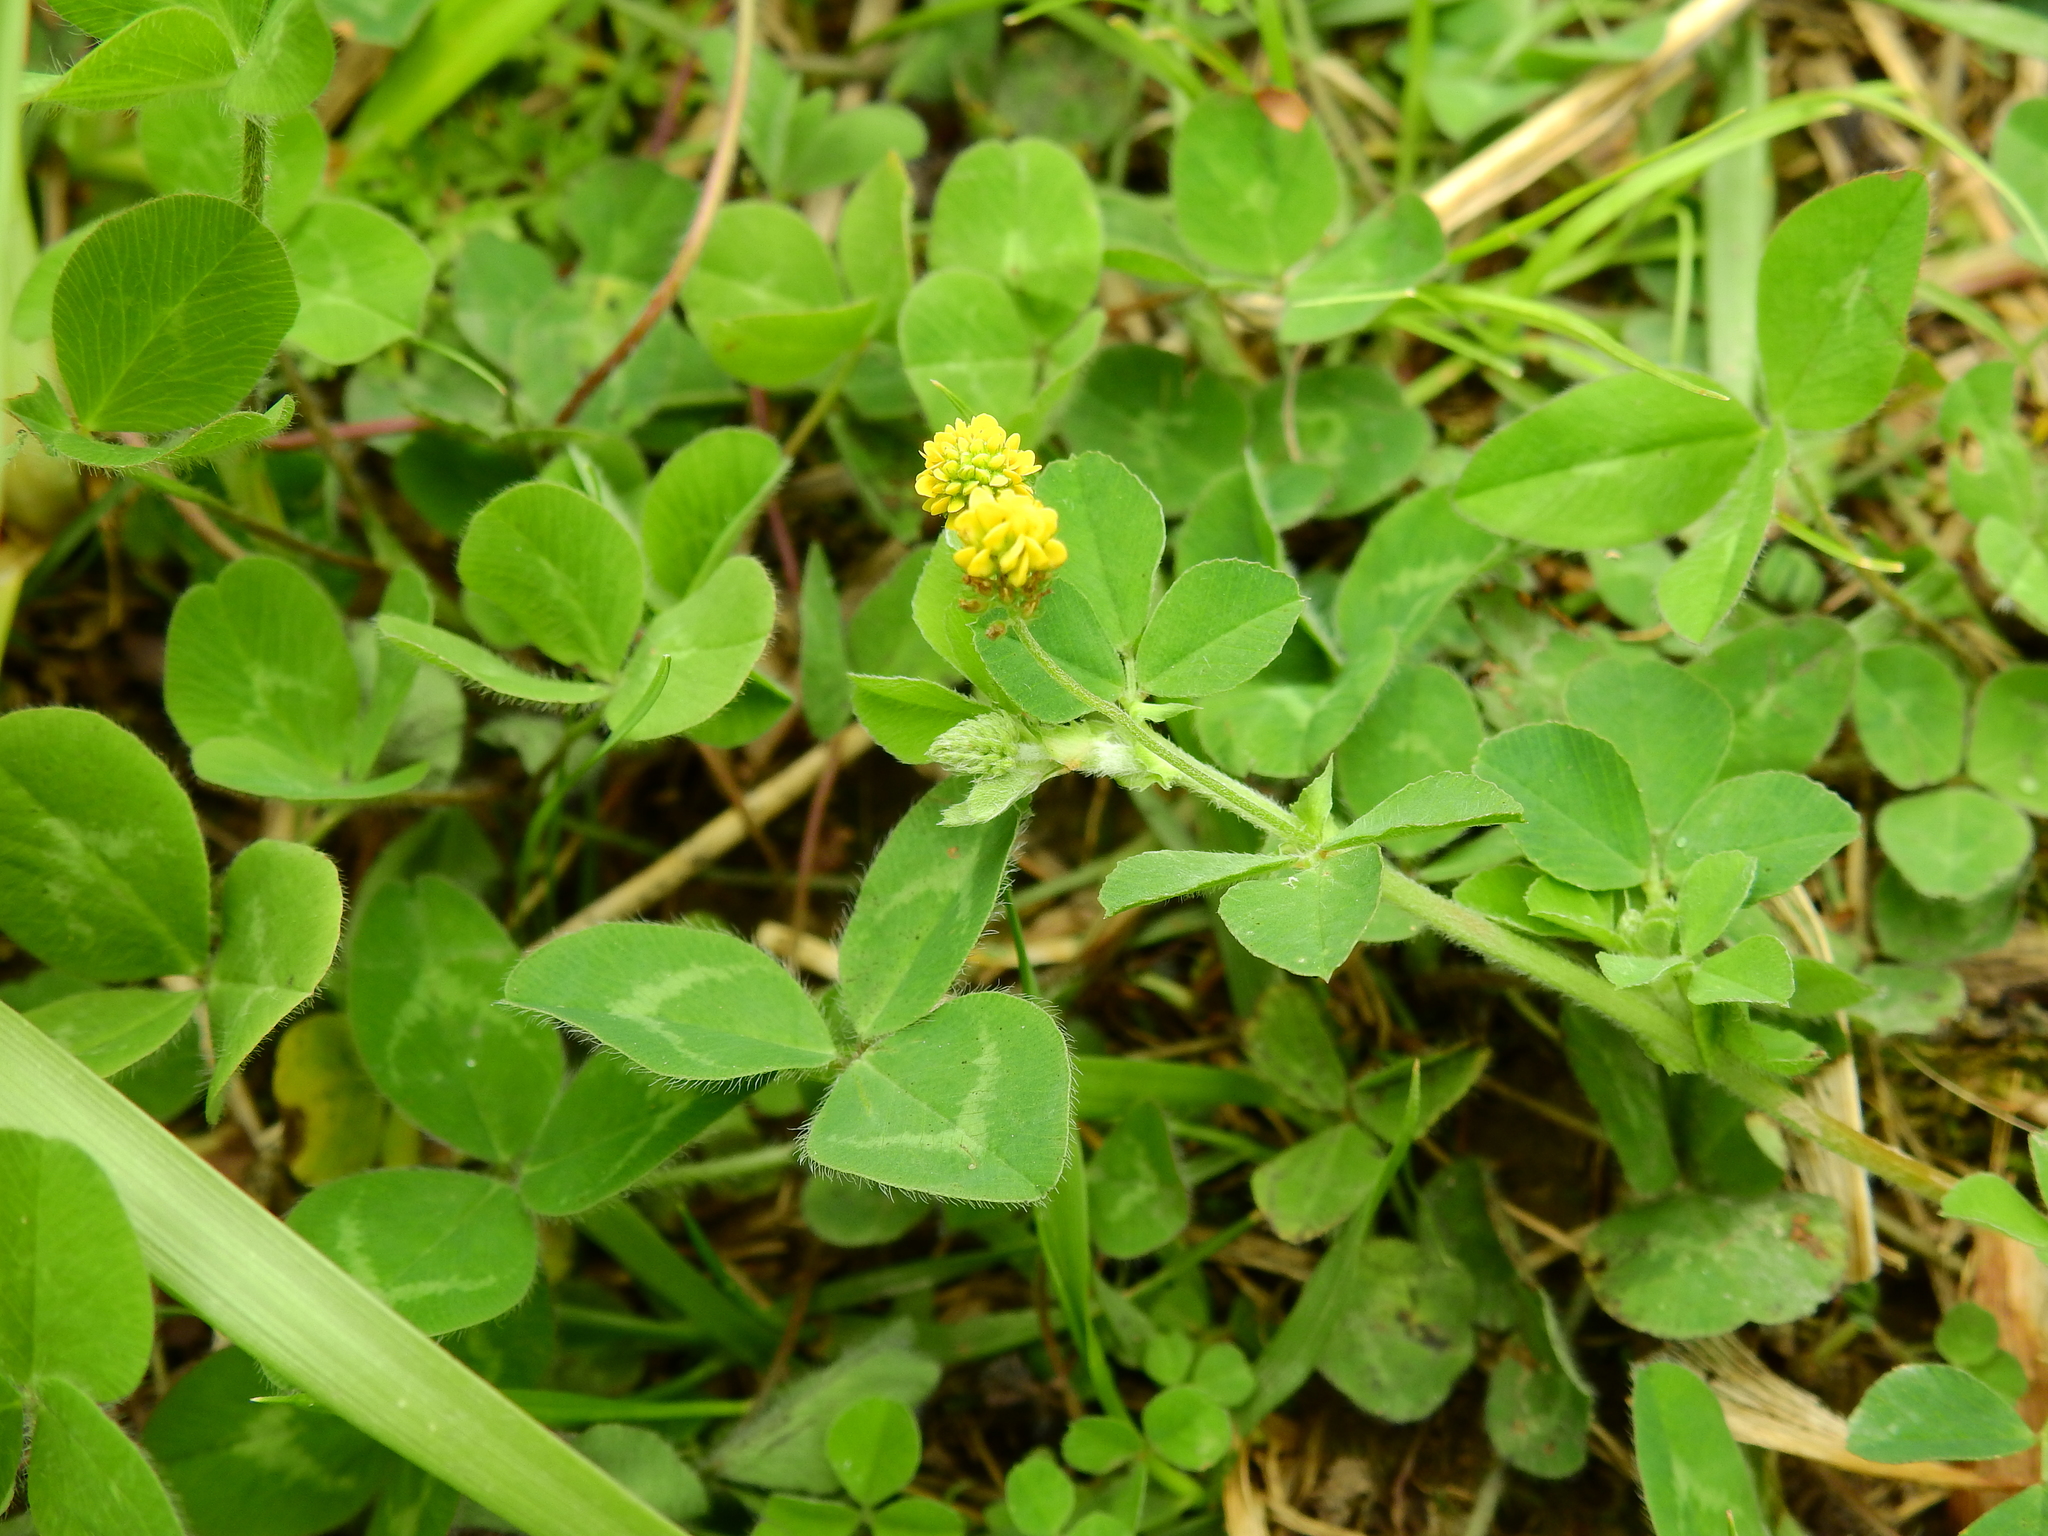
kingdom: Plantae
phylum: Tracheophyta
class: Magnoliopsida
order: Fabales
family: Fabaceae
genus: Medicago
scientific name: Medicago lupulina
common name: Black medick
